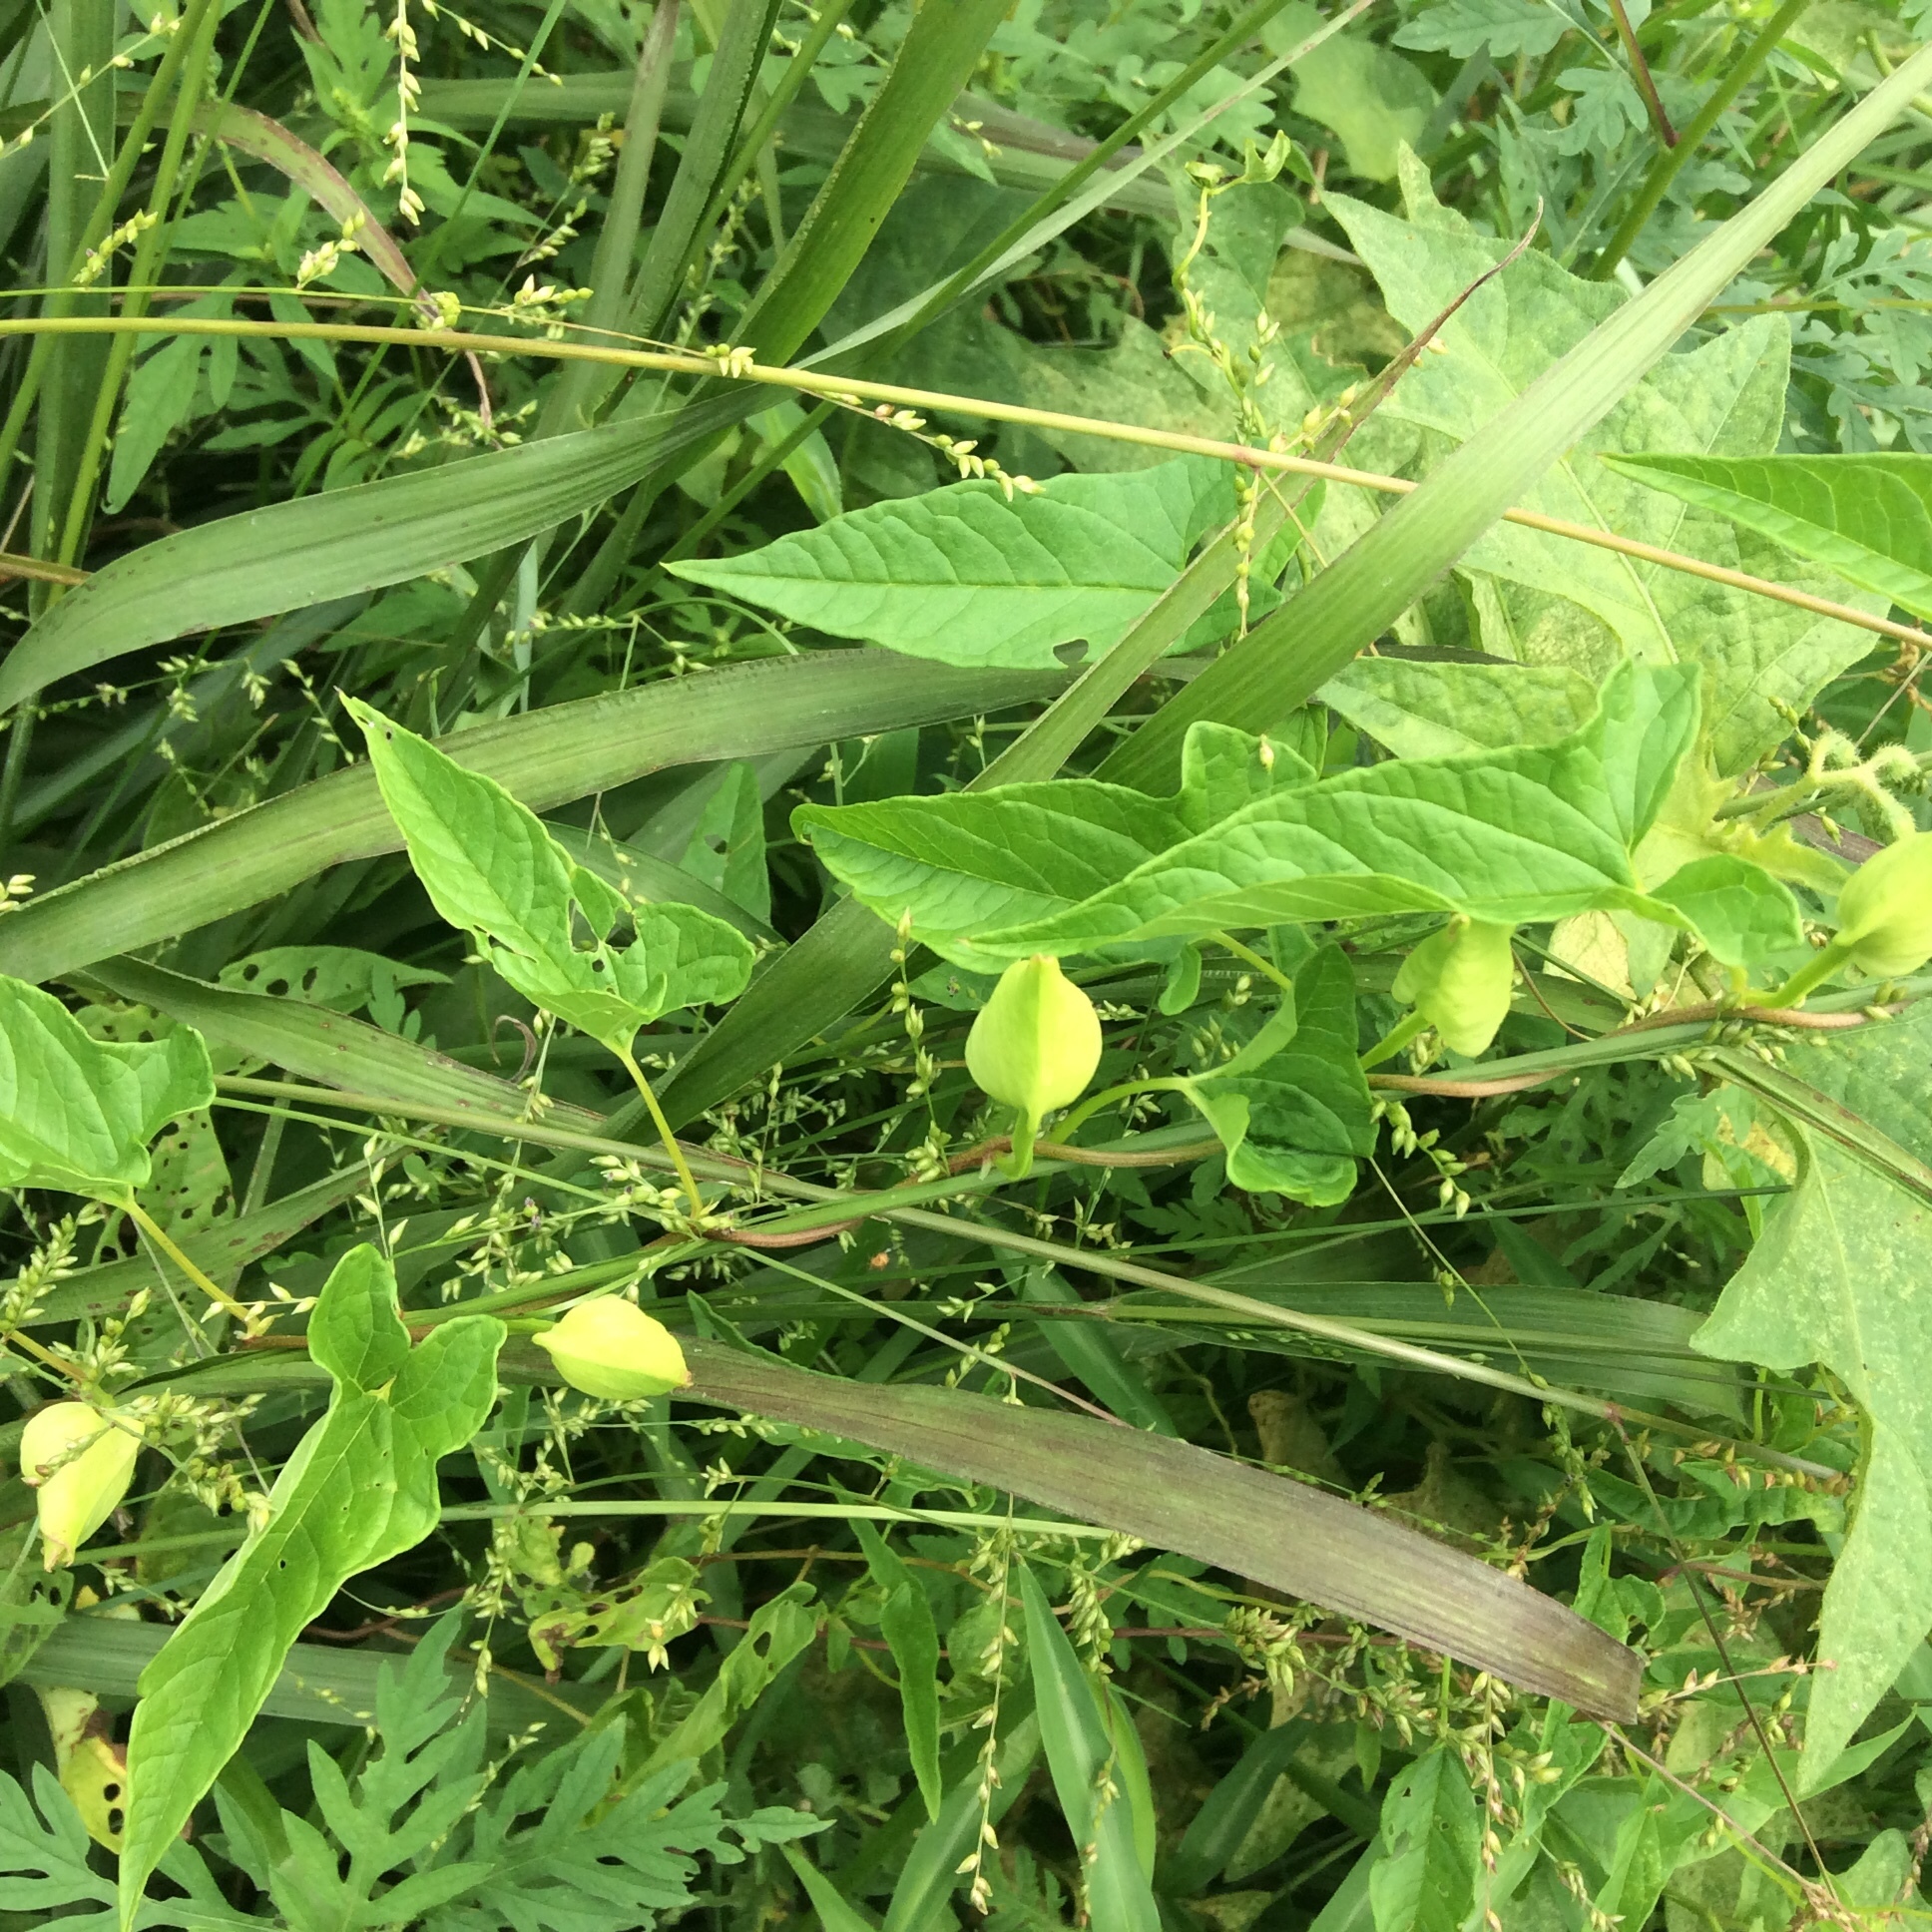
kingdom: Plantae
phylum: Tracheophyta
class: Magnoliopsida
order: Solanales
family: Convolvulaceae
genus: Calystegia
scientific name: Calystegia sepium
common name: Hedge bindweed
